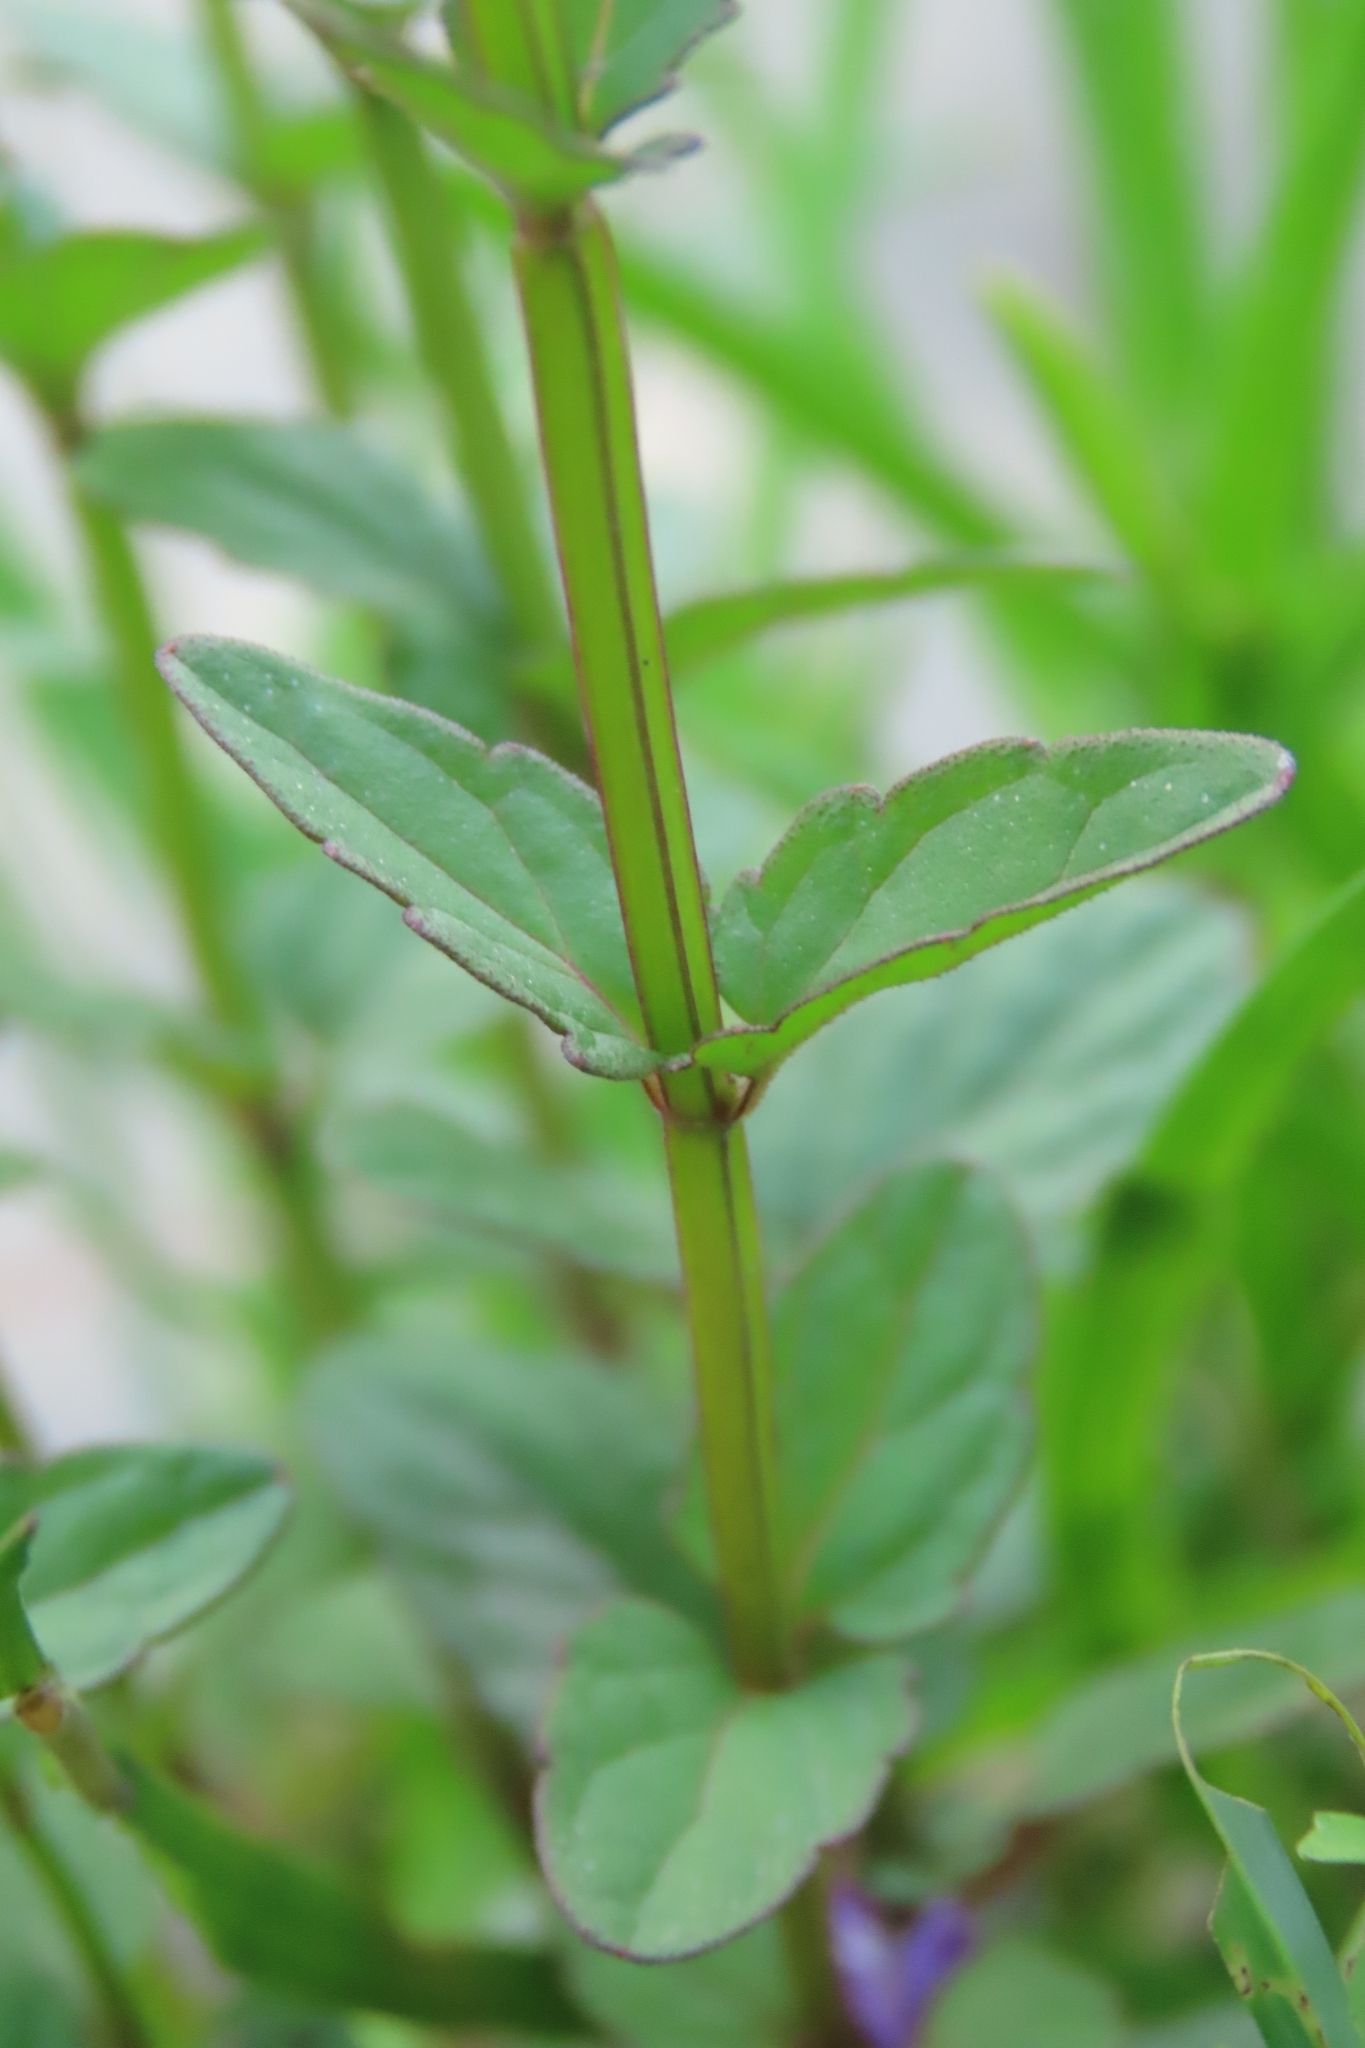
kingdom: Plantae
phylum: Tracheophyta
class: Magnoliopsida
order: Lamiales
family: Lamiaceae
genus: Scutellaria
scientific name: Scutellaria barbata
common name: Barbed skullcap
